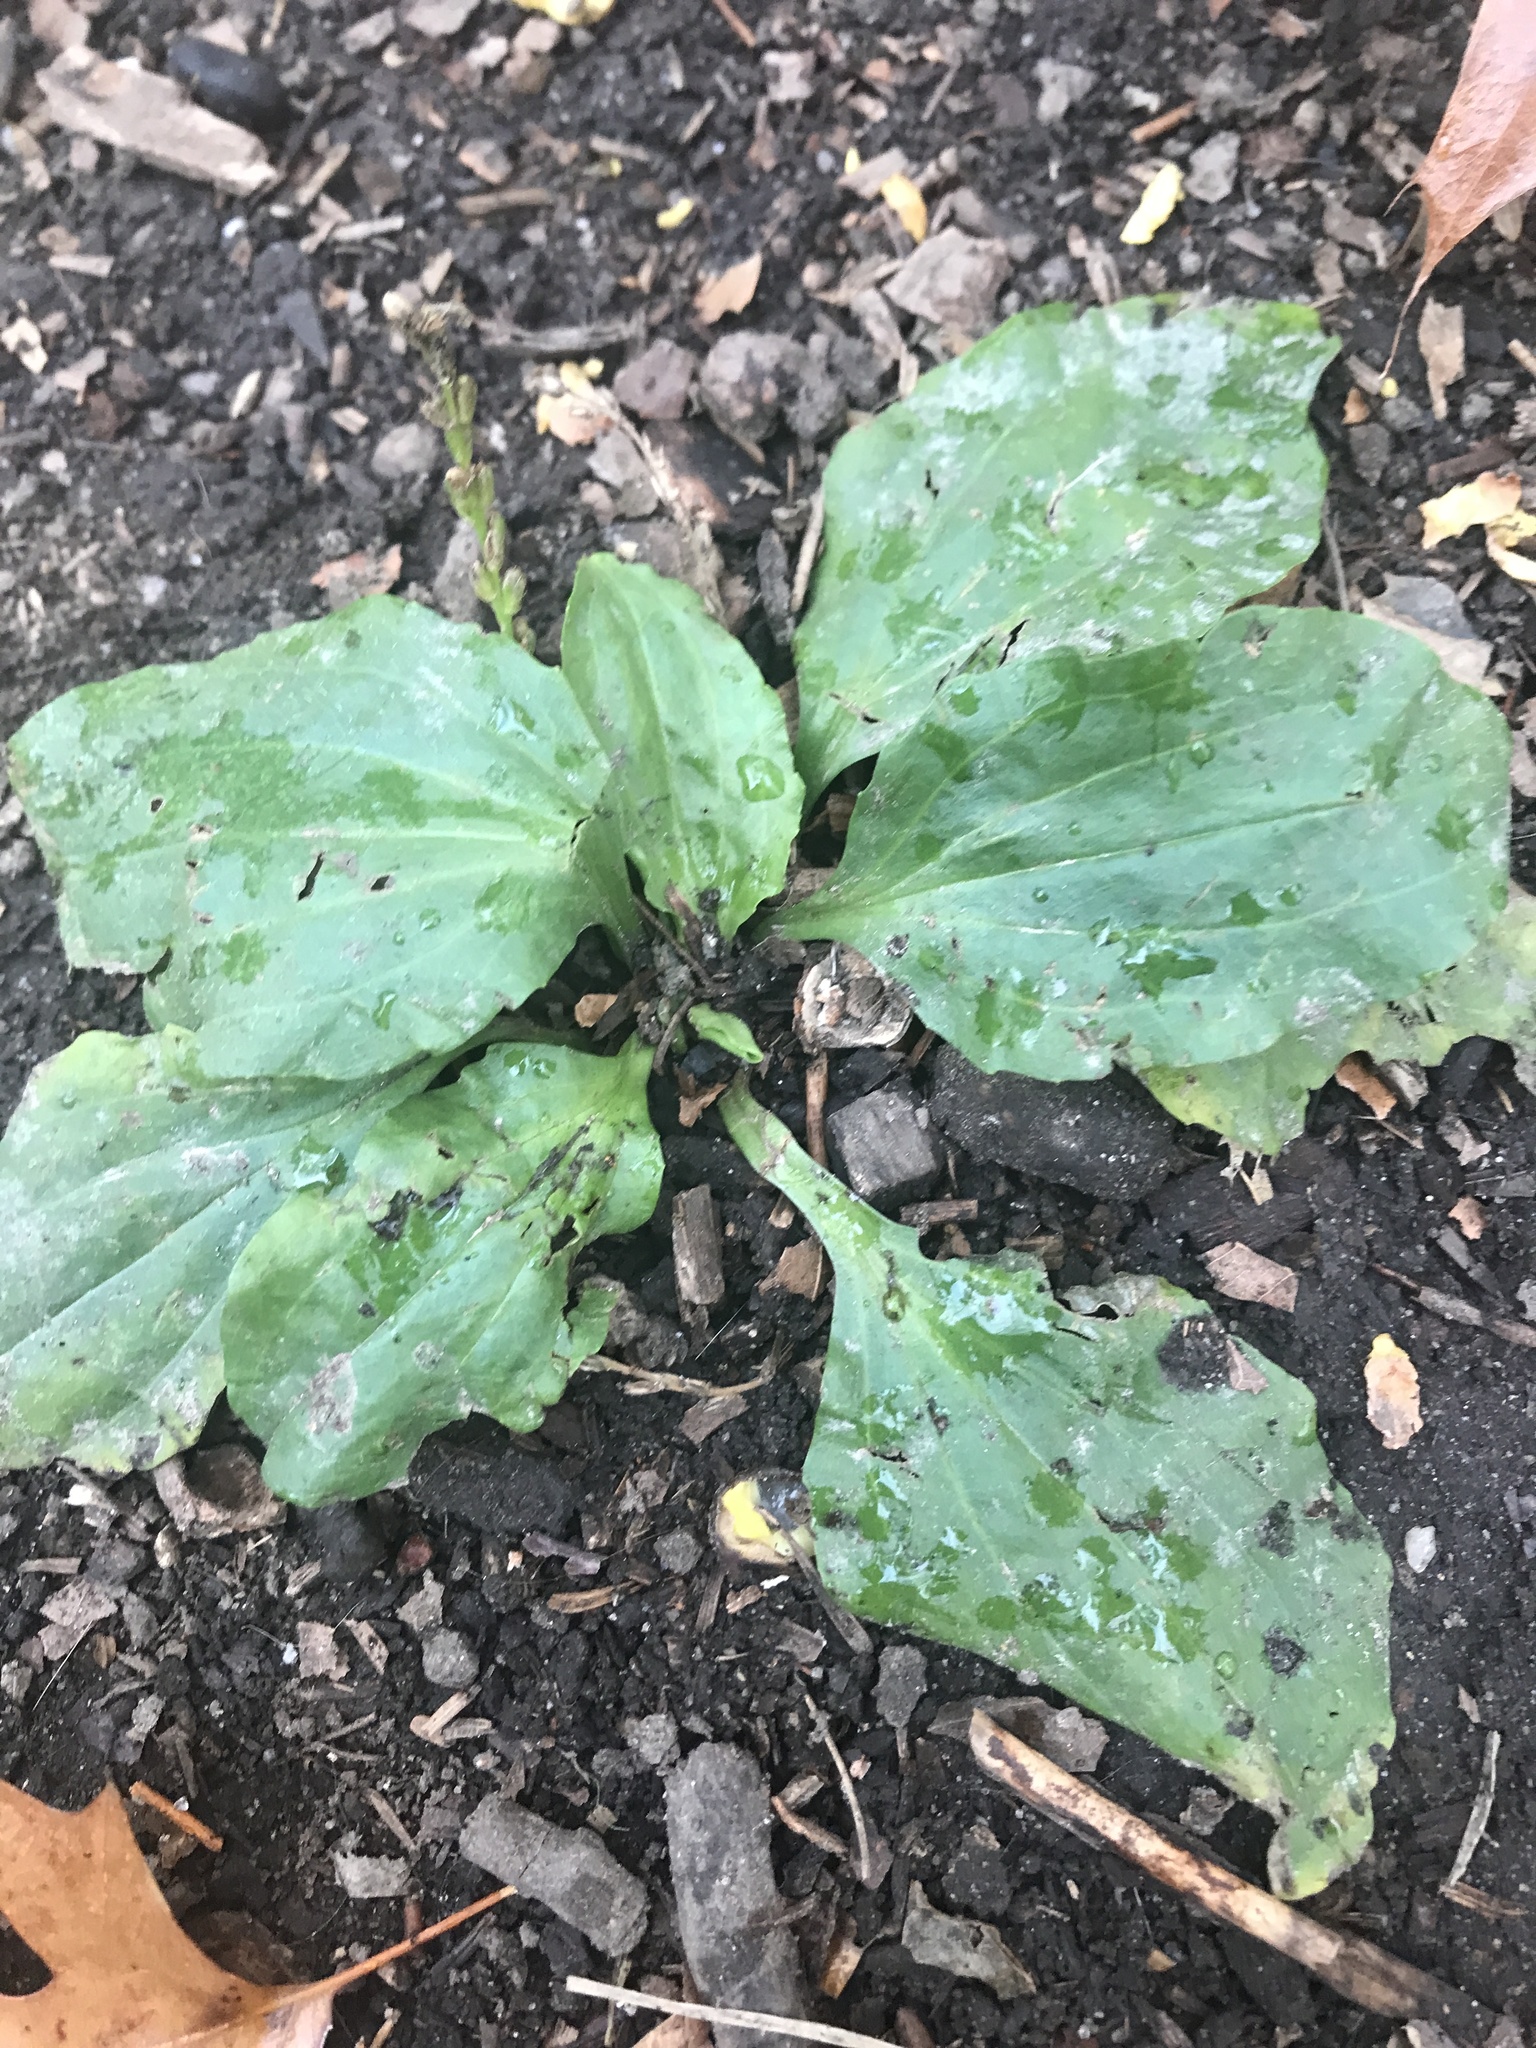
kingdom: Plantae
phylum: Tracheophyta
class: Magnoliopsida
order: Lamiales
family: Plantaginaceae
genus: Plantago
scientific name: Plantago rugelii
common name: American plantain
